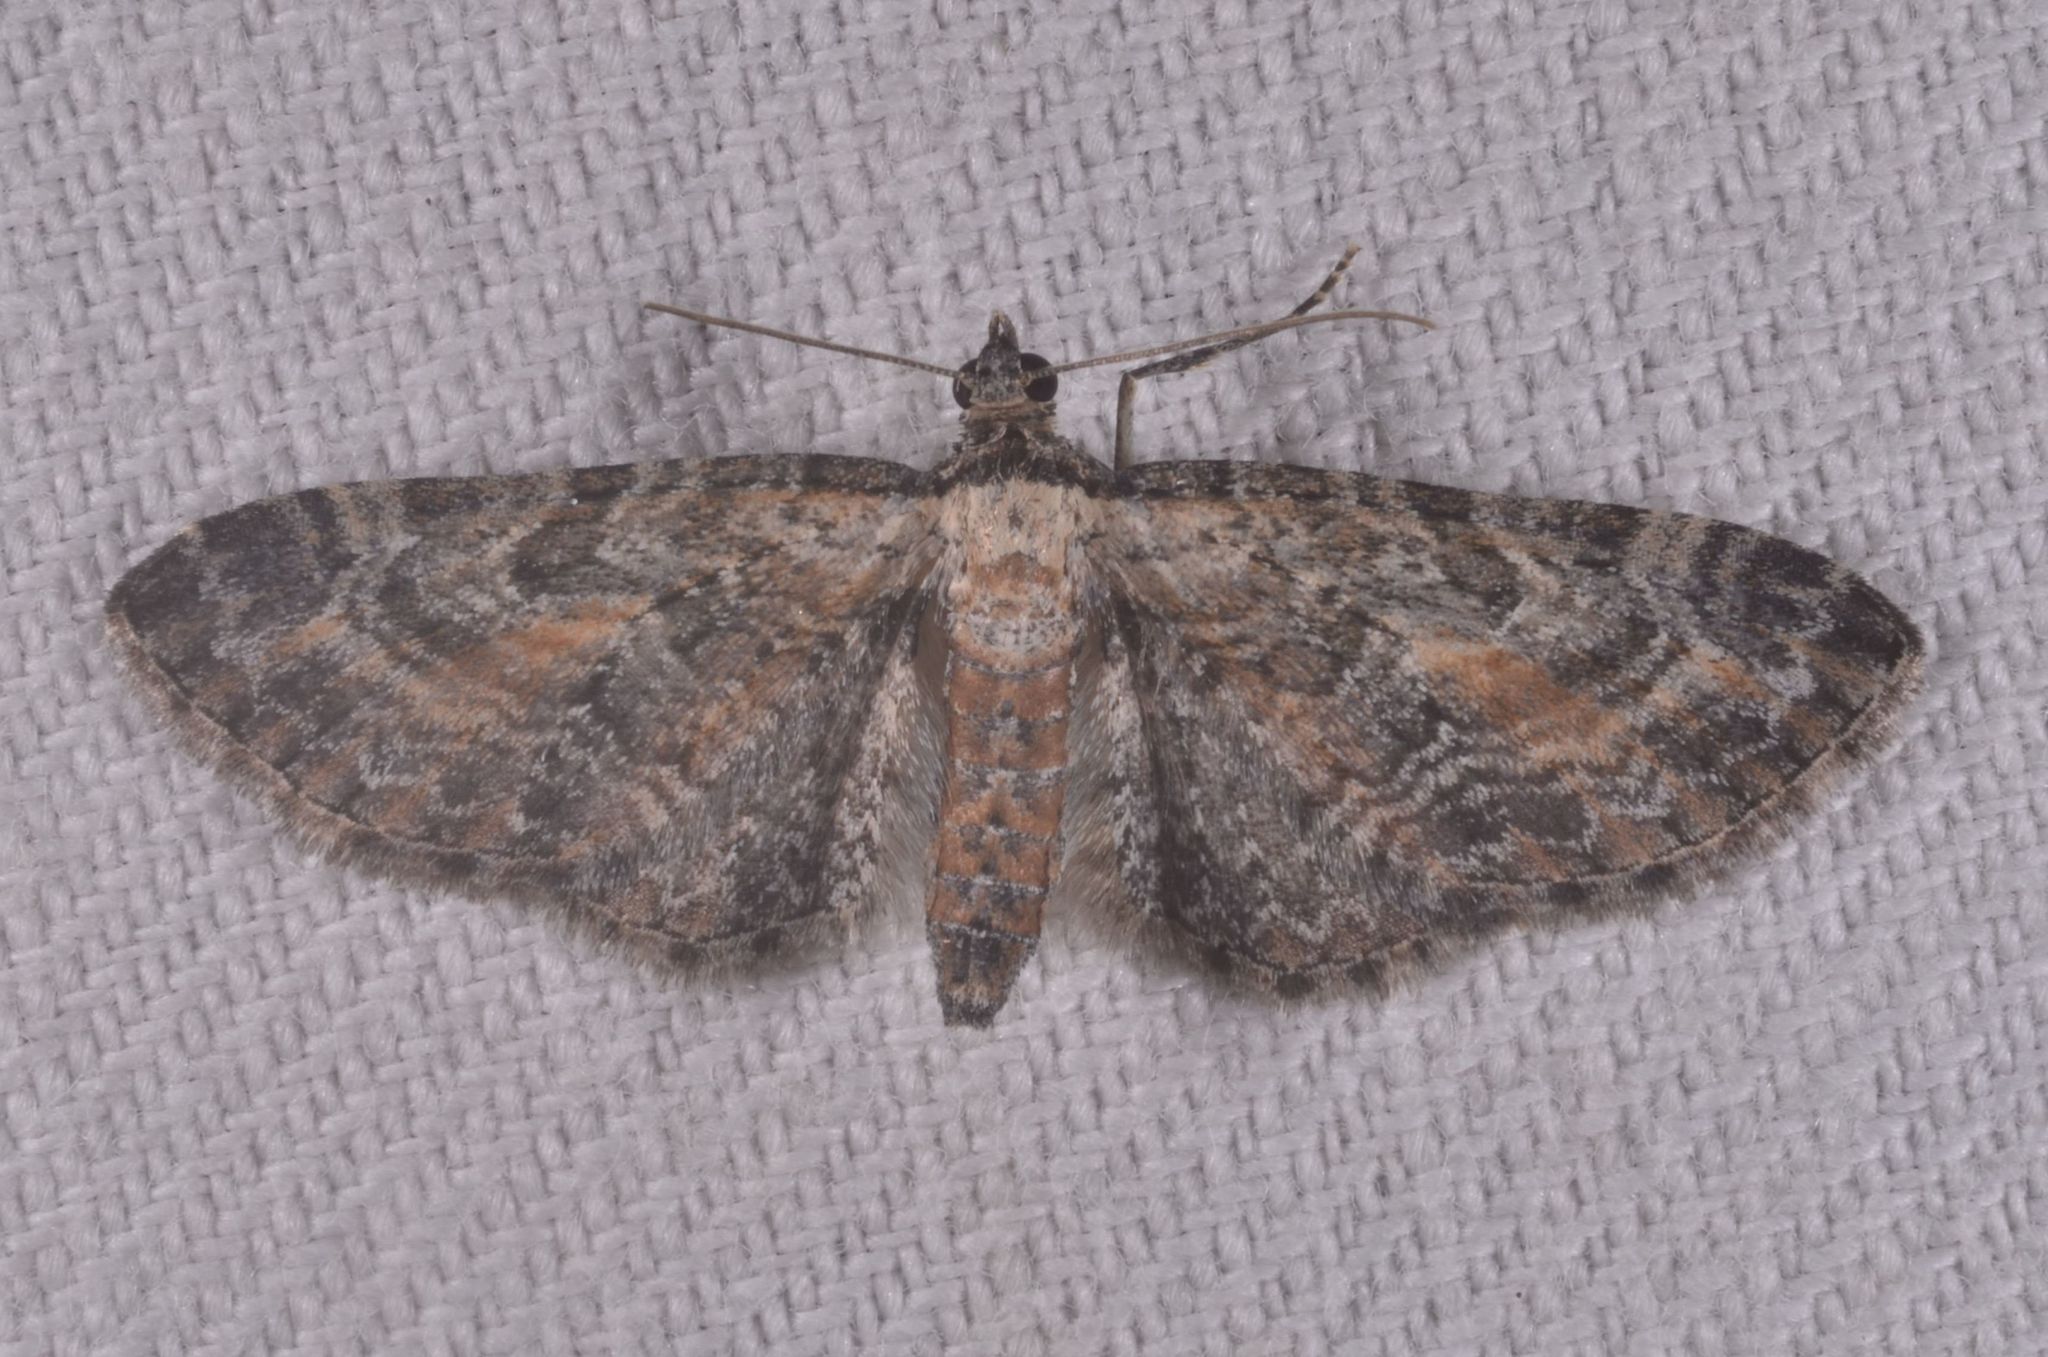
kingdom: Animalia
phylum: Arthropoda
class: Insecta
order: Lepidoptera
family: Geometridae
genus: Eupithecia
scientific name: Eupithecia icterata
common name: Tawny speckled pug
